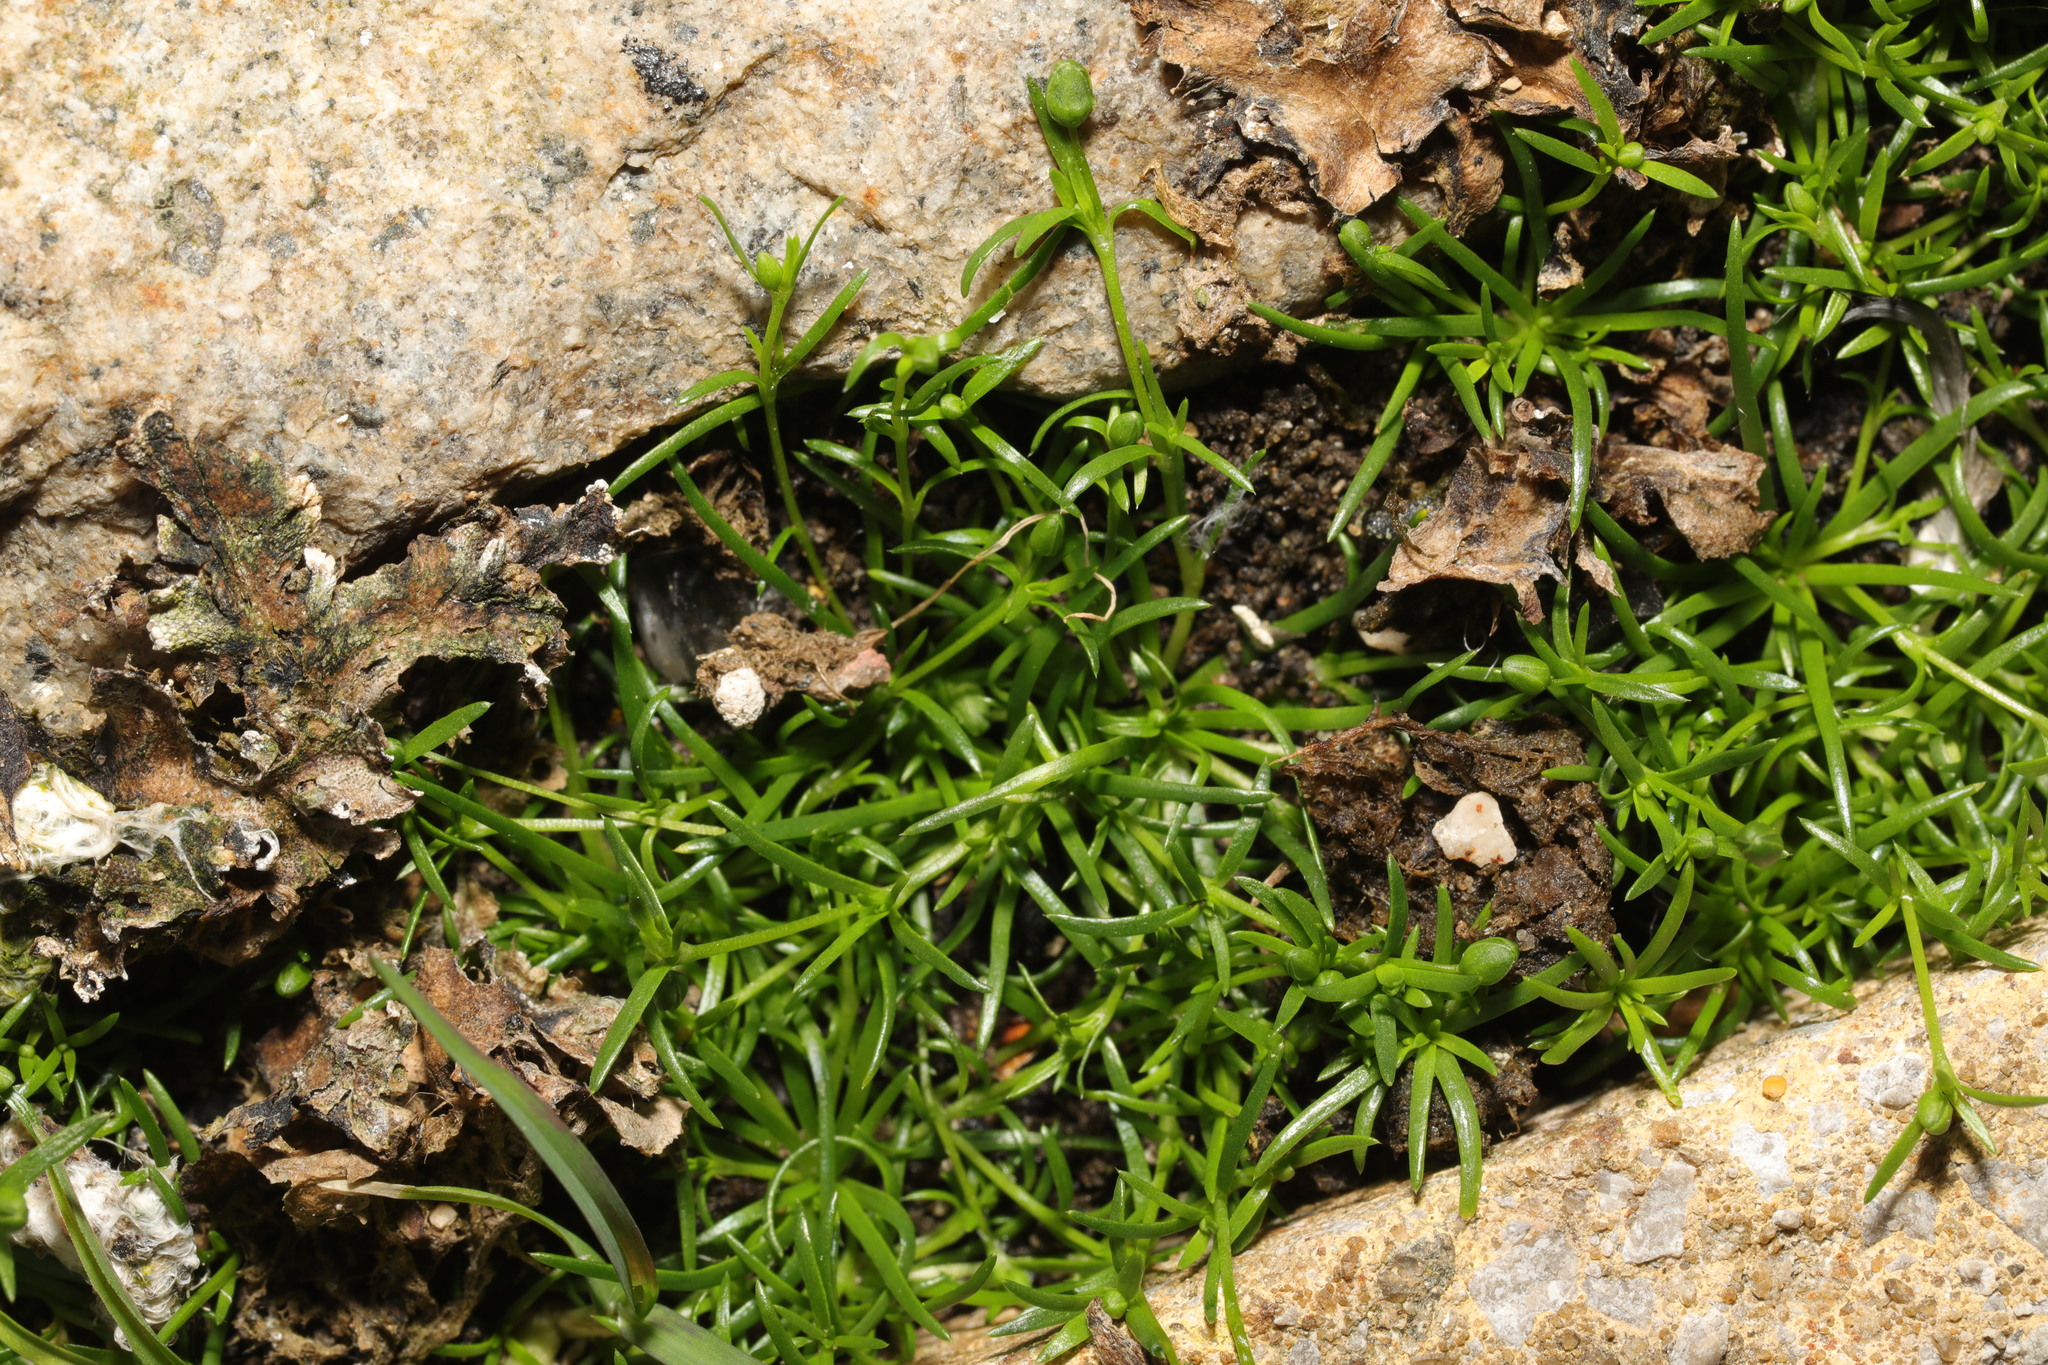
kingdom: Plantae
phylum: Tracheophyta
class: Magnoliopsida
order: Caryophyllales
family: Caryophyllaceae
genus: Sagina
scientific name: Sagina procumbens
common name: Procumbent pearlwort
